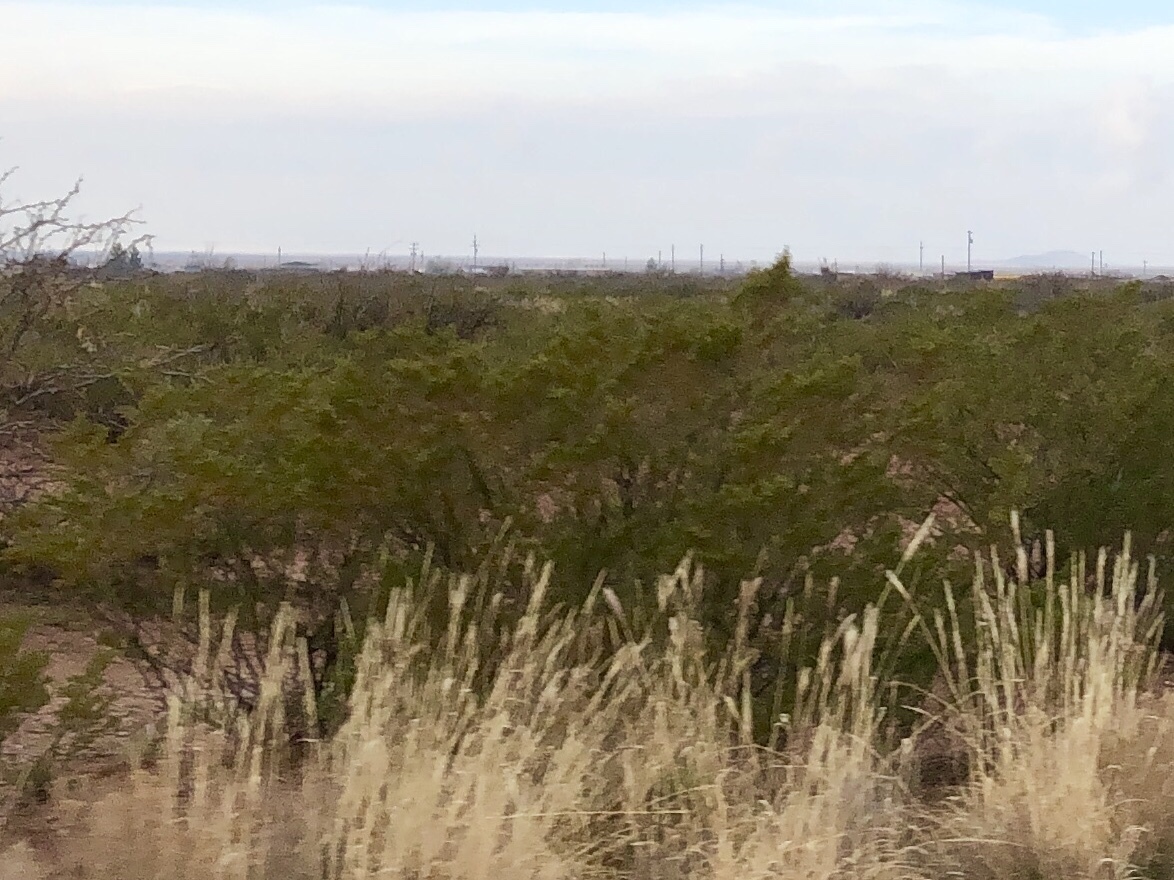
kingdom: Plantae
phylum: Tracheophyta
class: Magnoliopsida
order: Zygophyllales
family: Zygophyllaceae
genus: Larrea
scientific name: Larrea tridentata
